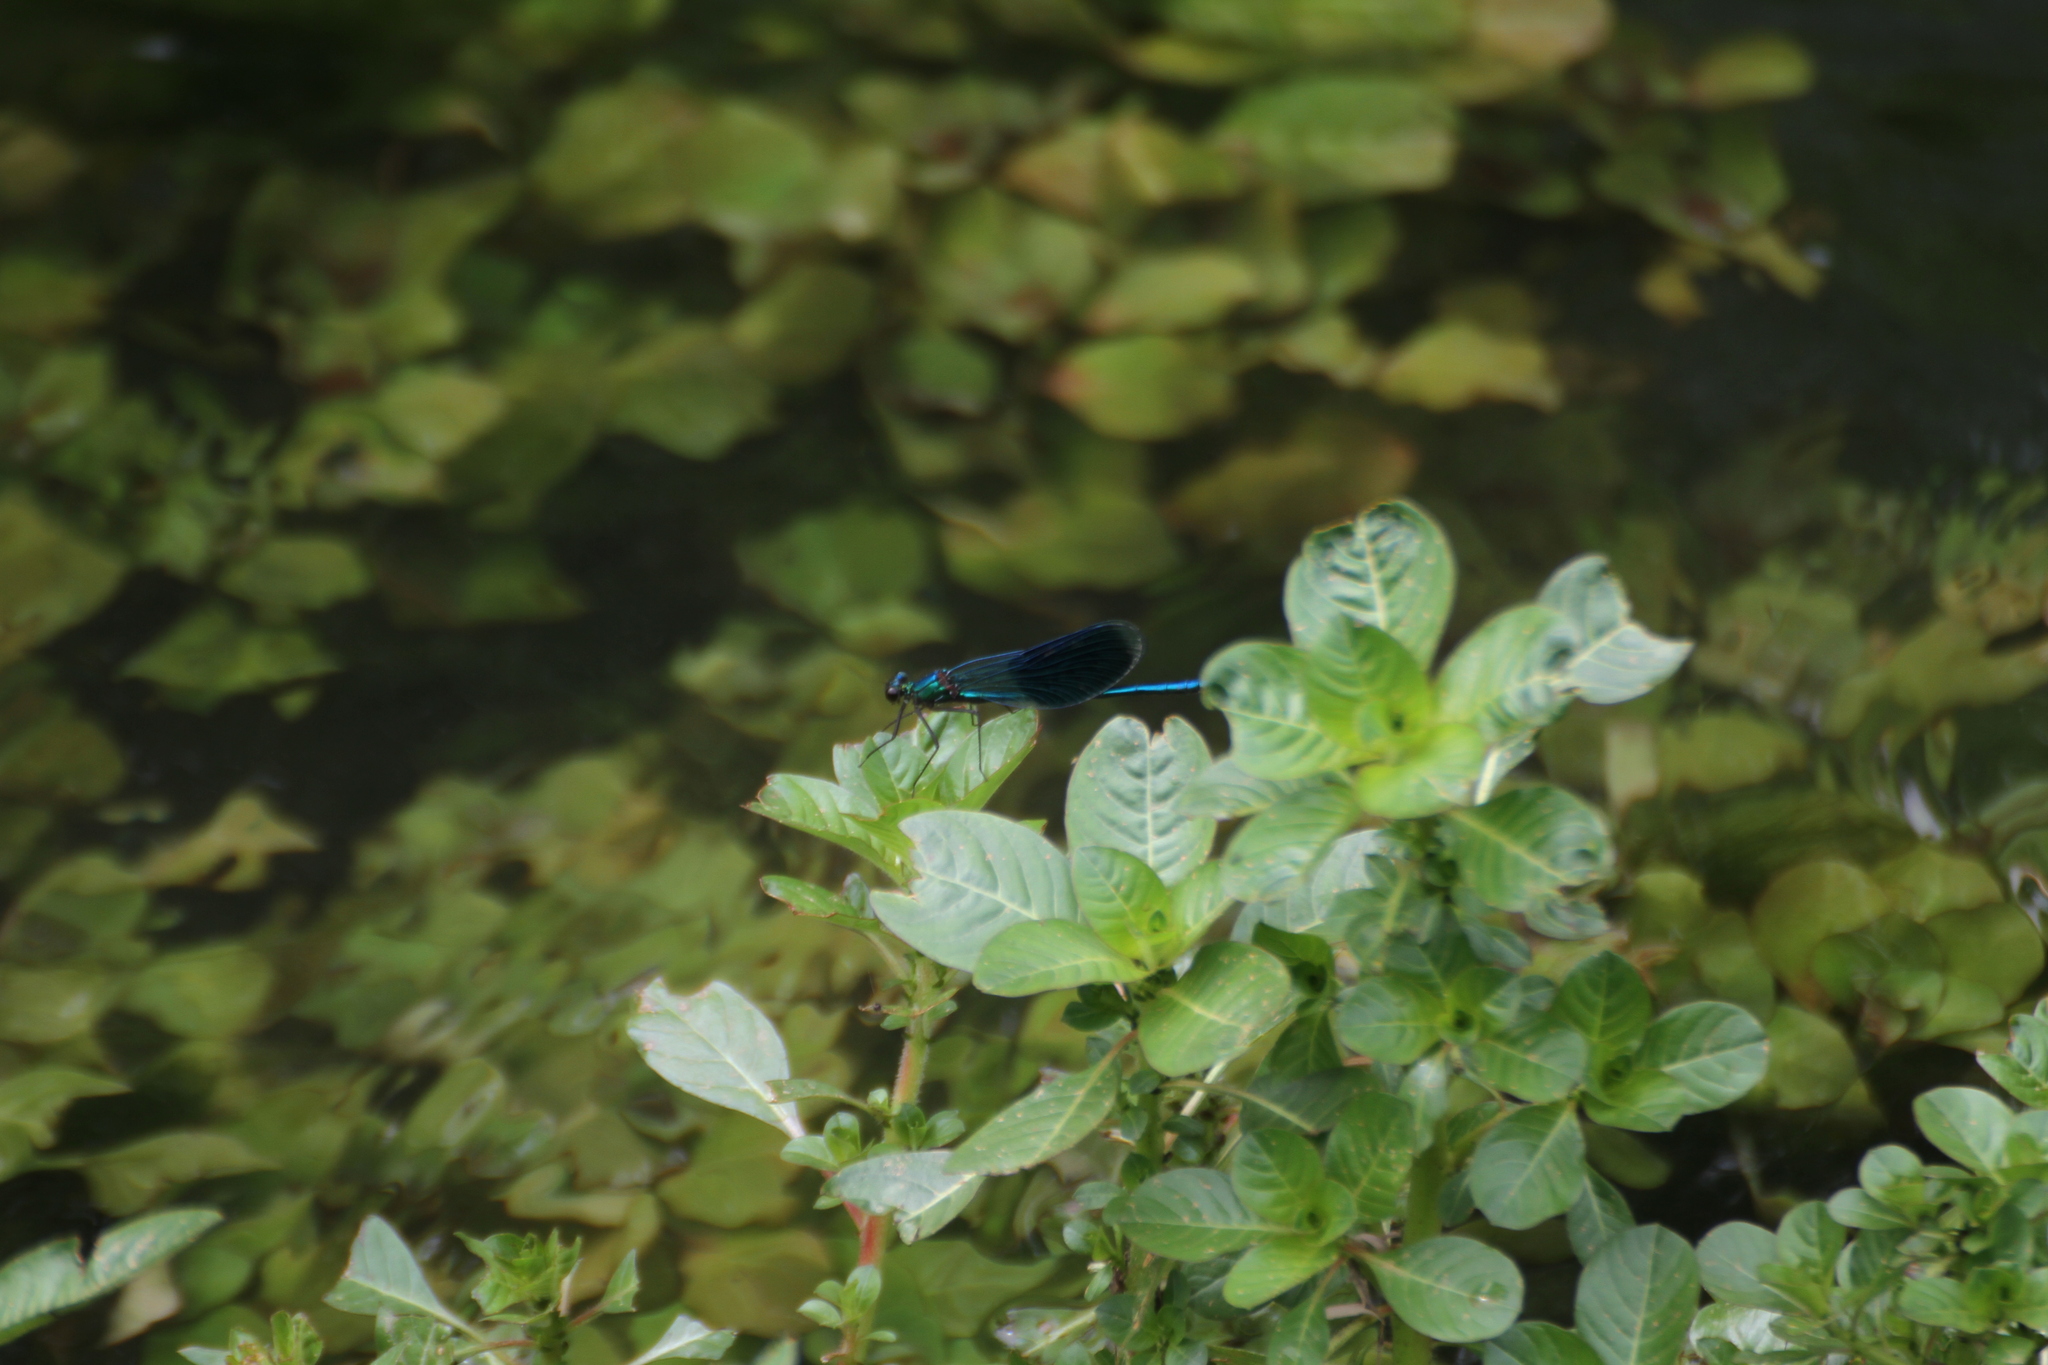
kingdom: Animalia
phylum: Arthropoda
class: Insecta
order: Odonata
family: Calopterygidae
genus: Calopteryx
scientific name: Calopteryx splendens
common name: Banded demoiselle
